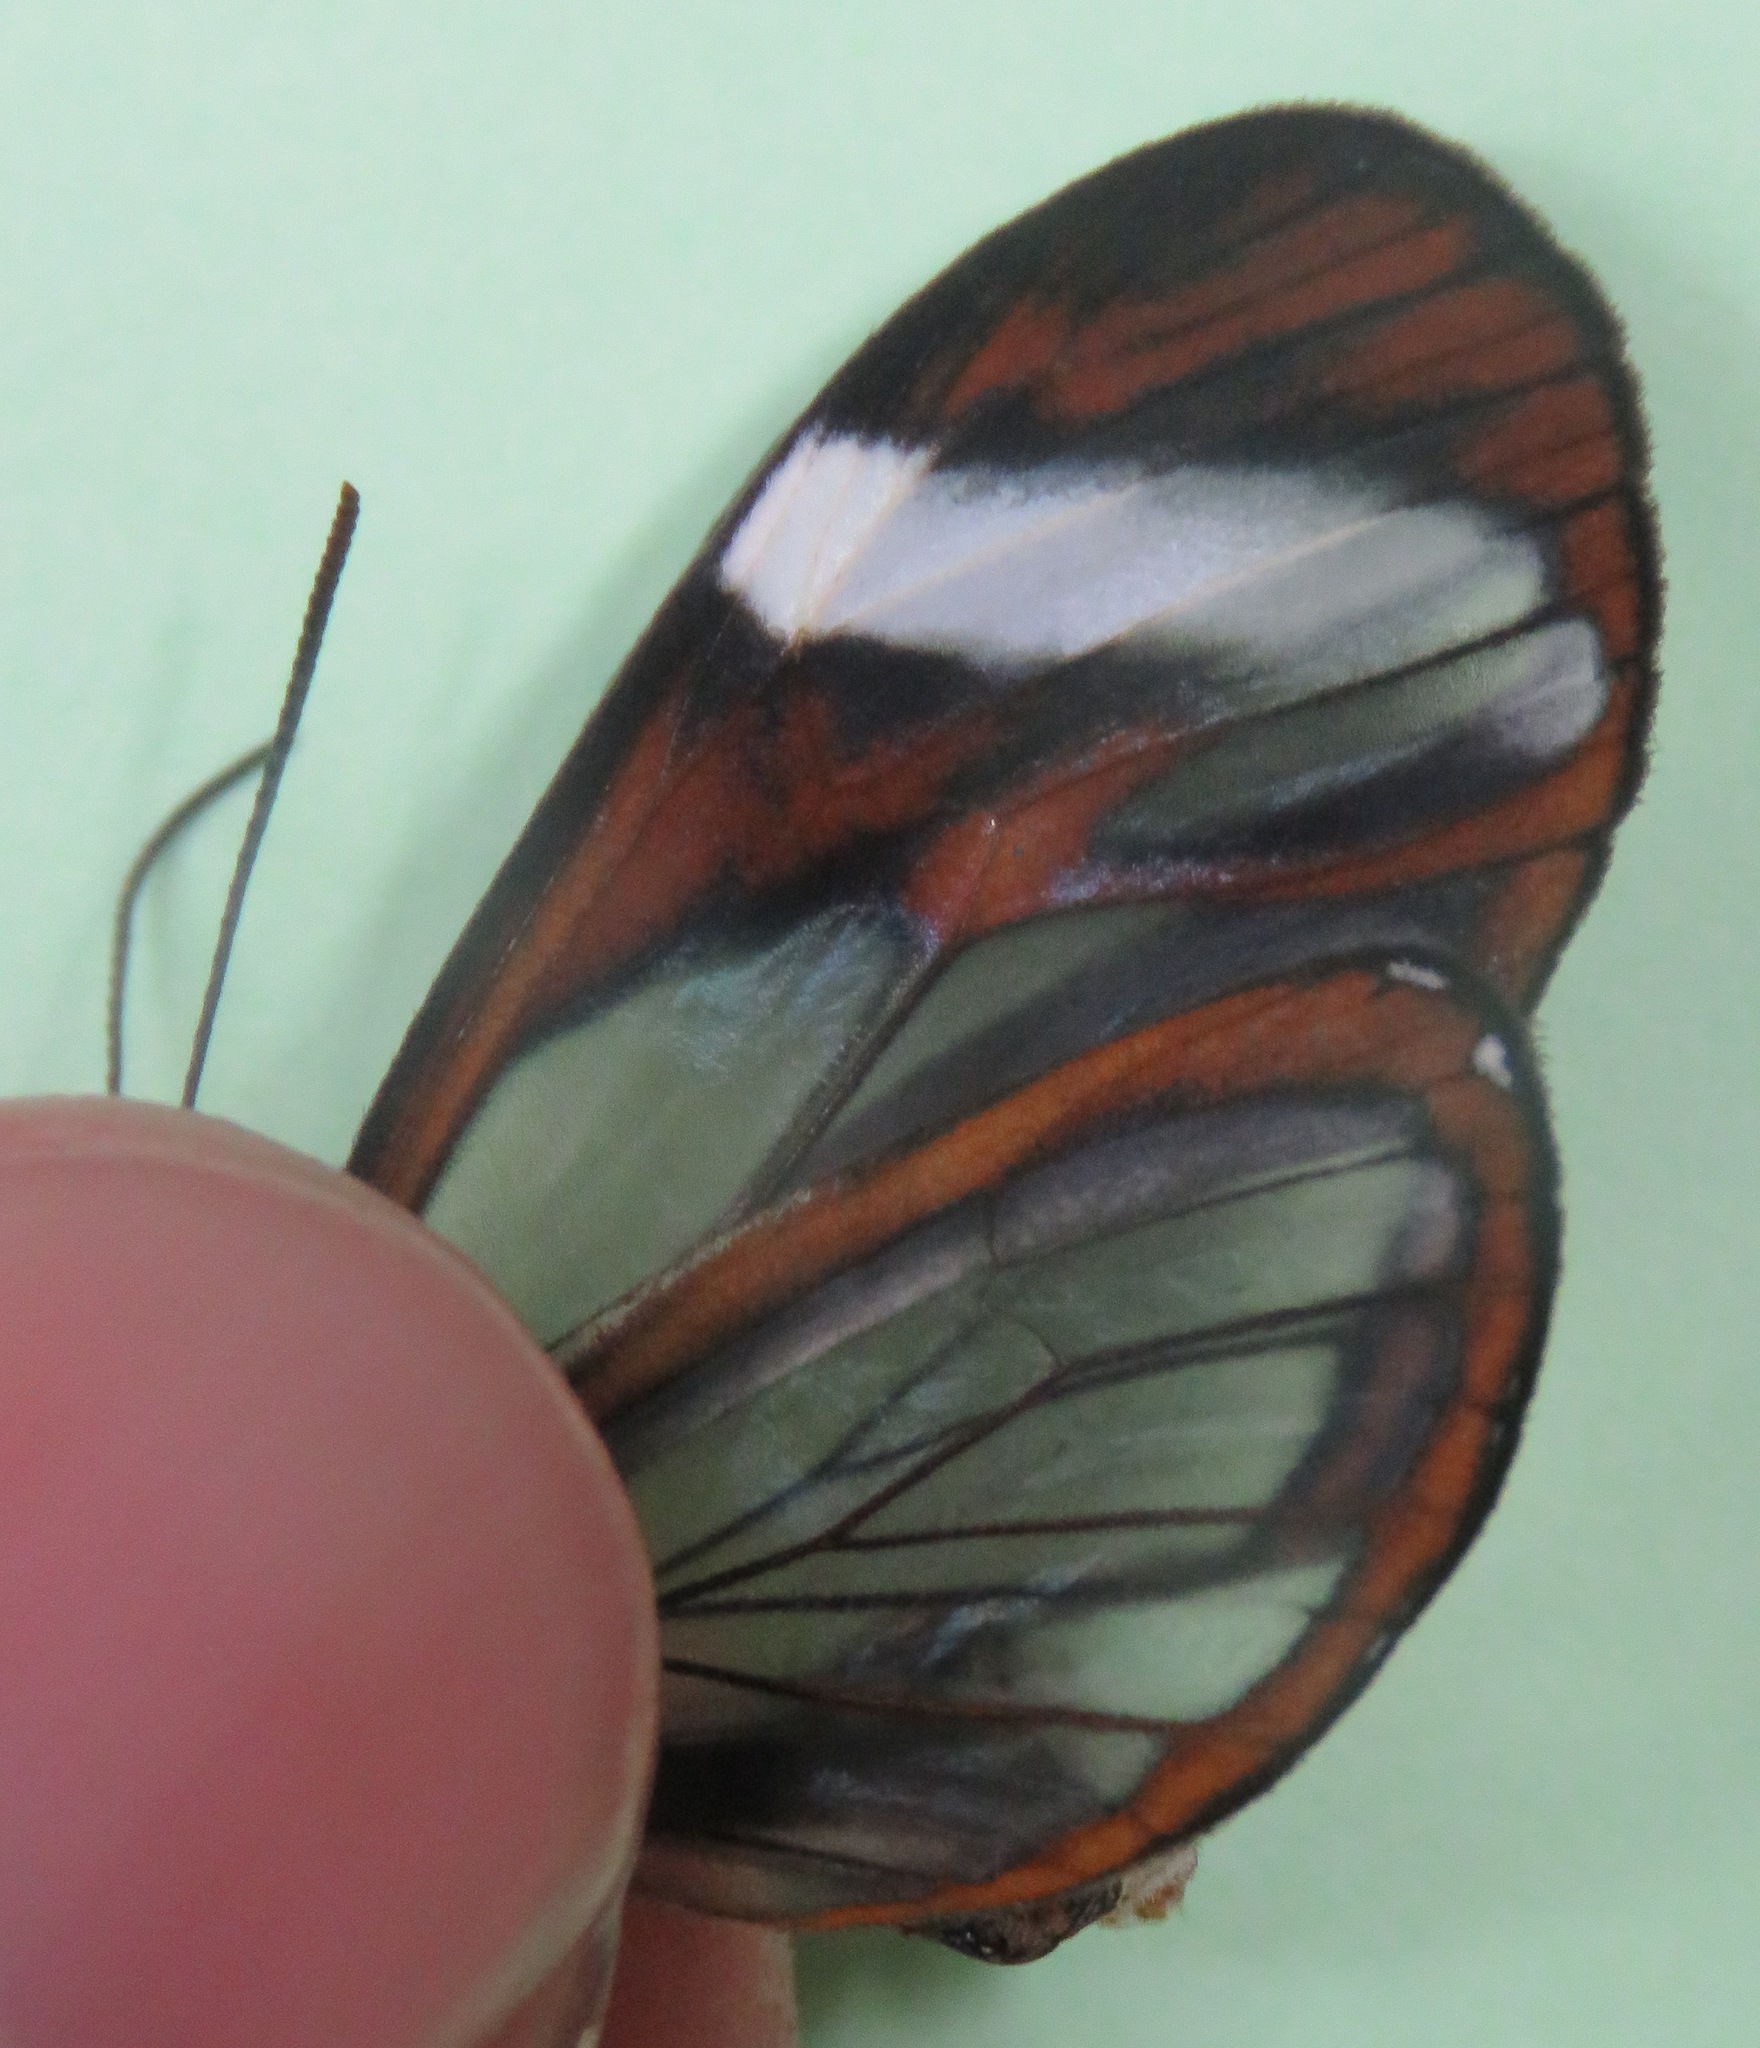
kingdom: Animalia
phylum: Arthropoda
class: Insecta
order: Lepidoptera
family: Nymphalidae
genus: Ithomia
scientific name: Ithomia patilla
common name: Patilla clearwing
